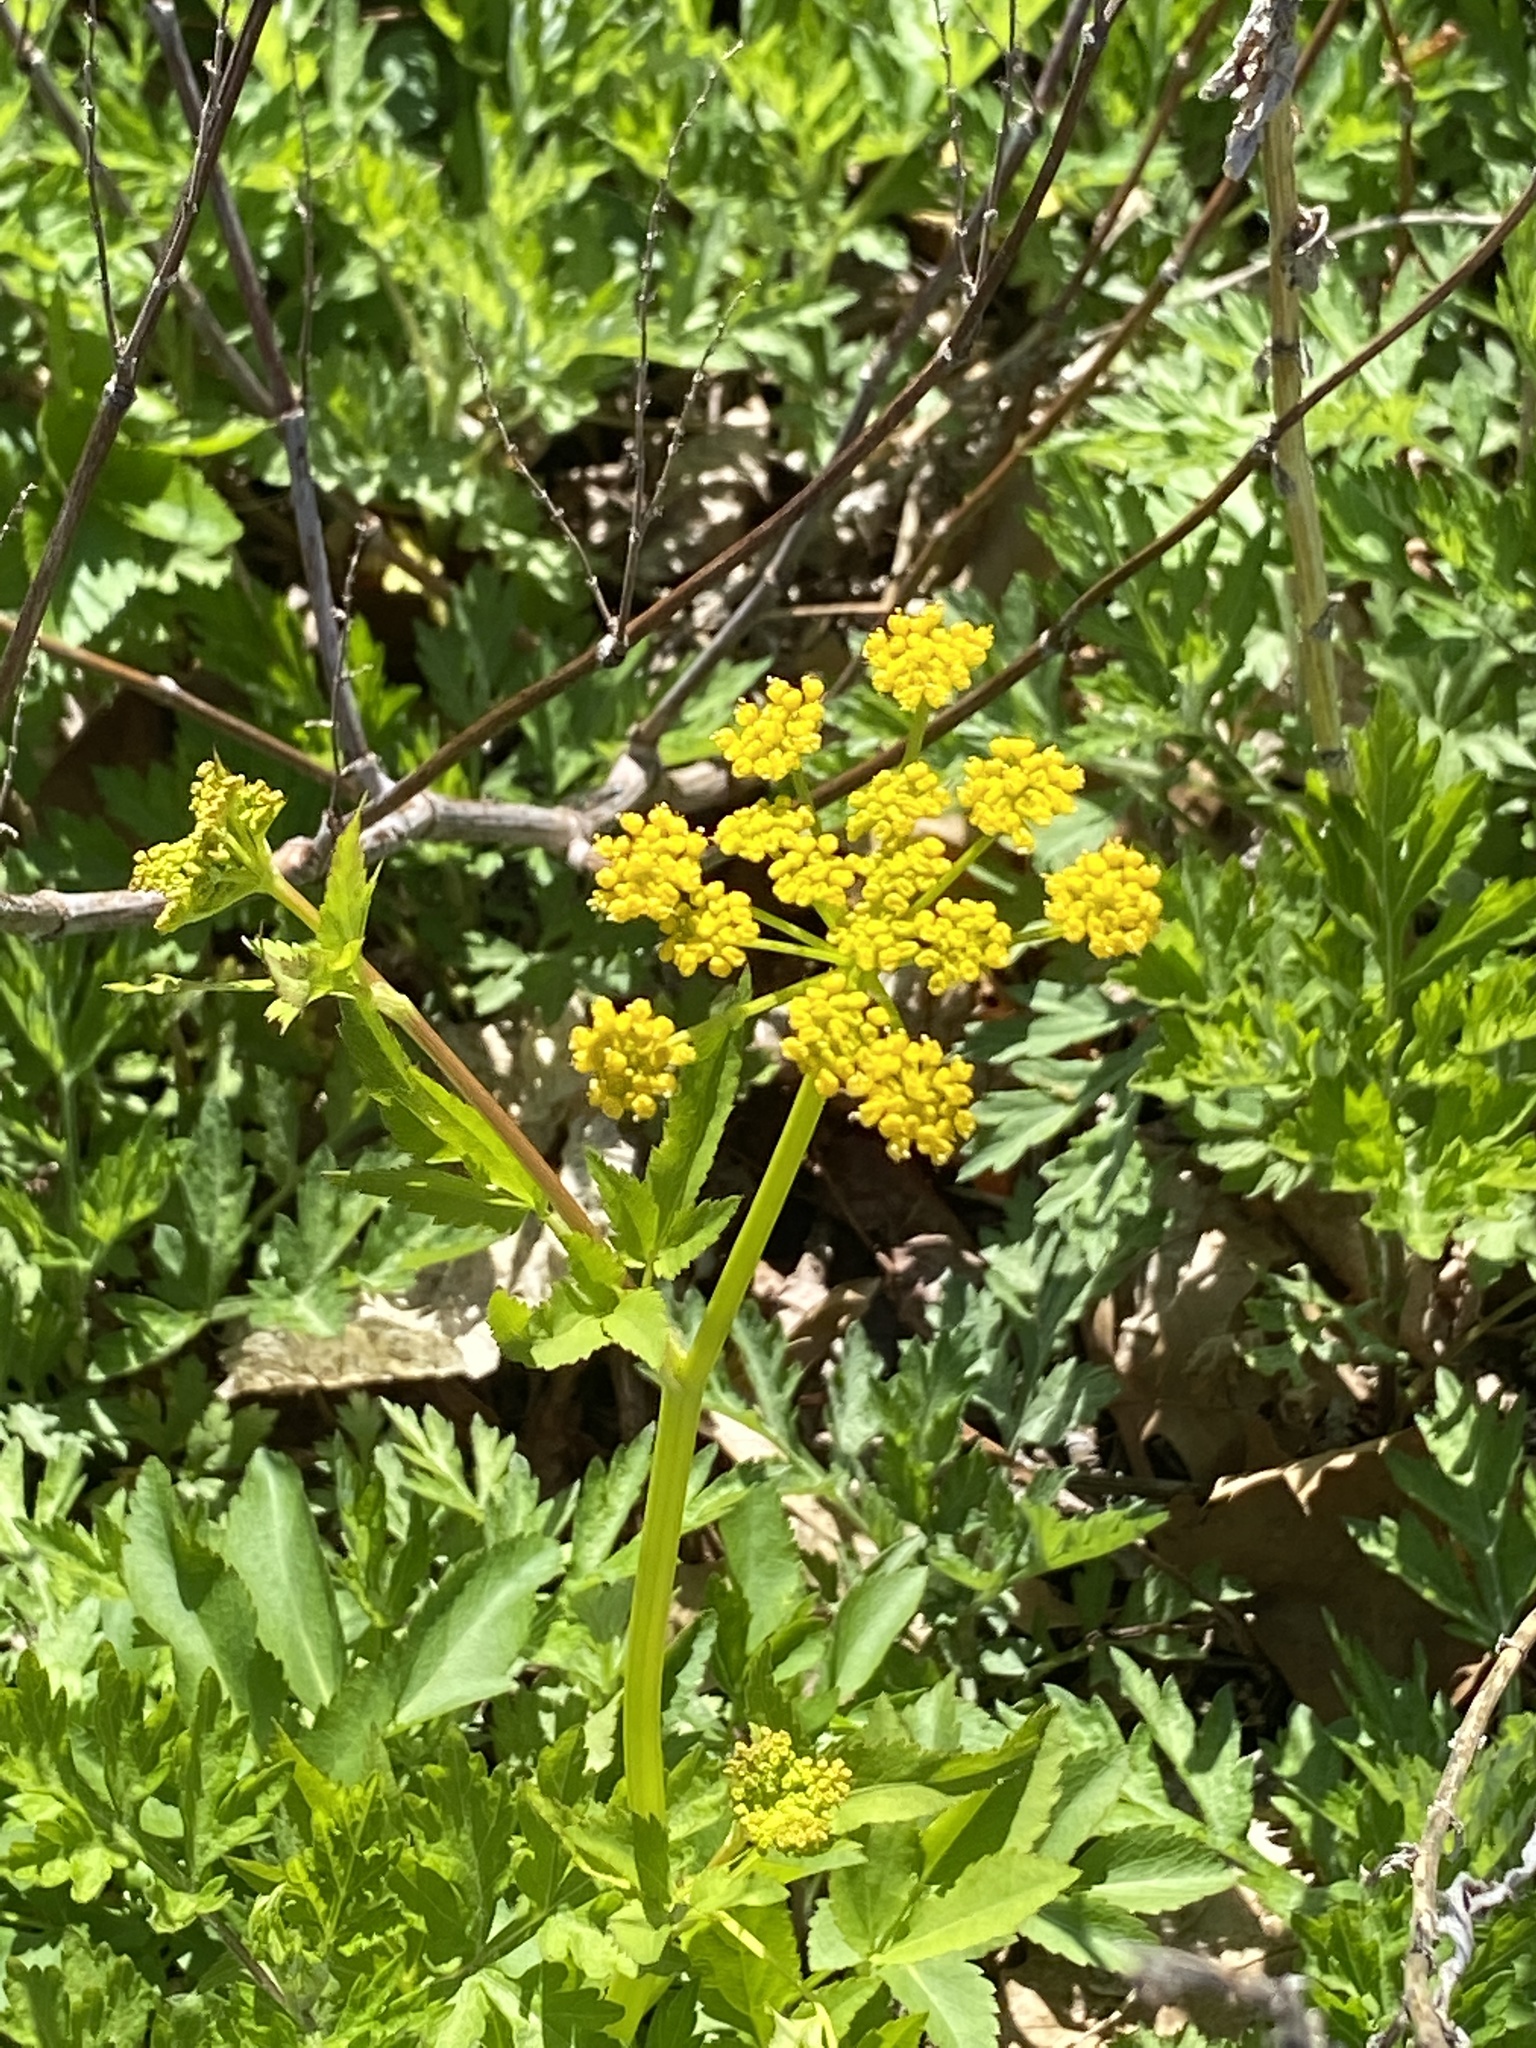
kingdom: Plantae
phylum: Tracheophyta
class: Magnoliopsida
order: Apiales
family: Apiaceae
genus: Zizia
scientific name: Zizia aurea
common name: Golden alexanders
